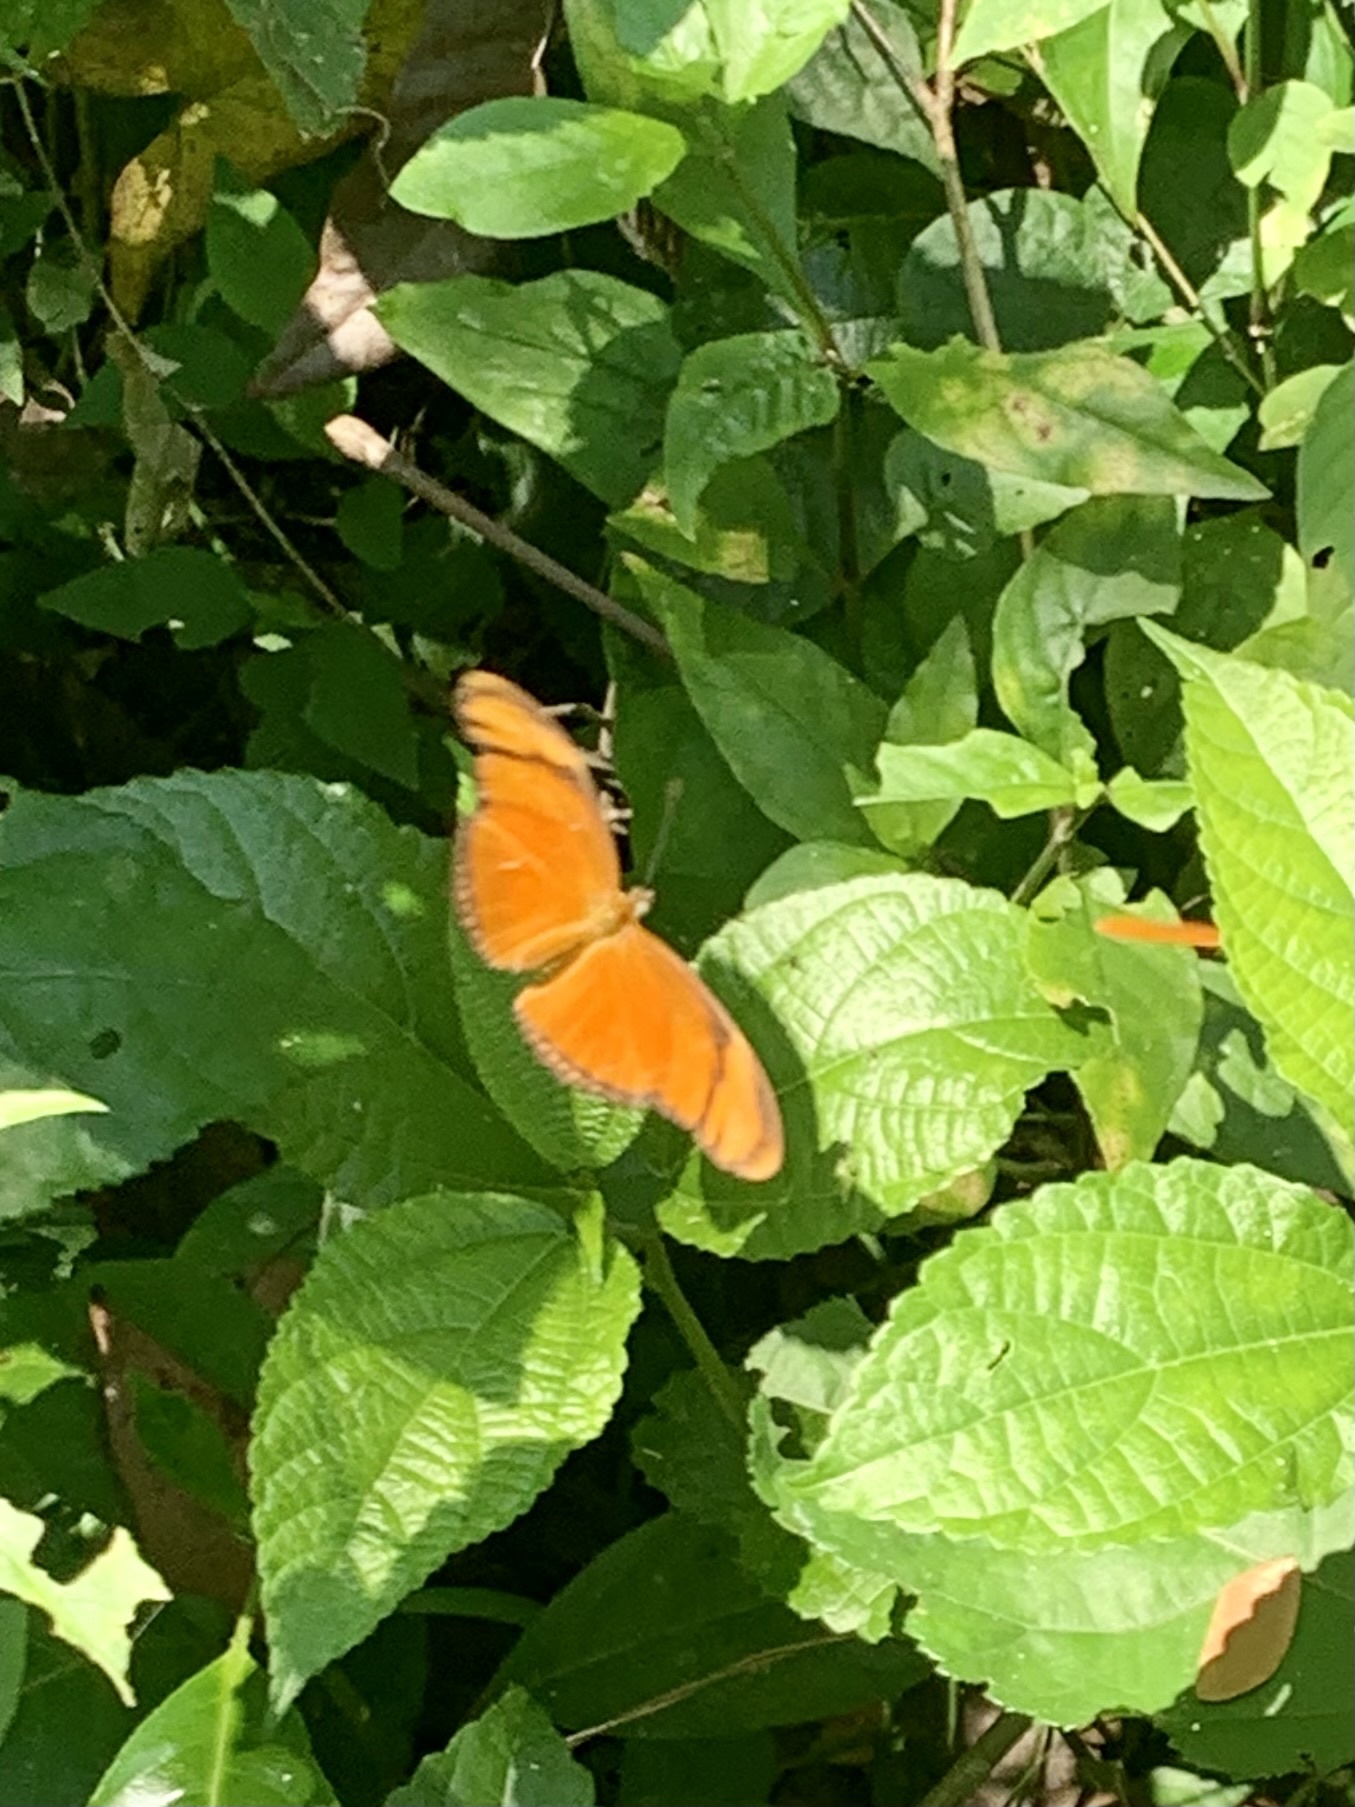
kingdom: Animalia
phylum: Arthropoda
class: Insecta
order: Lepidoptera
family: Nymphalidae
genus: Dryas
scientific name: Dryas iulia
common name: Flambeau
